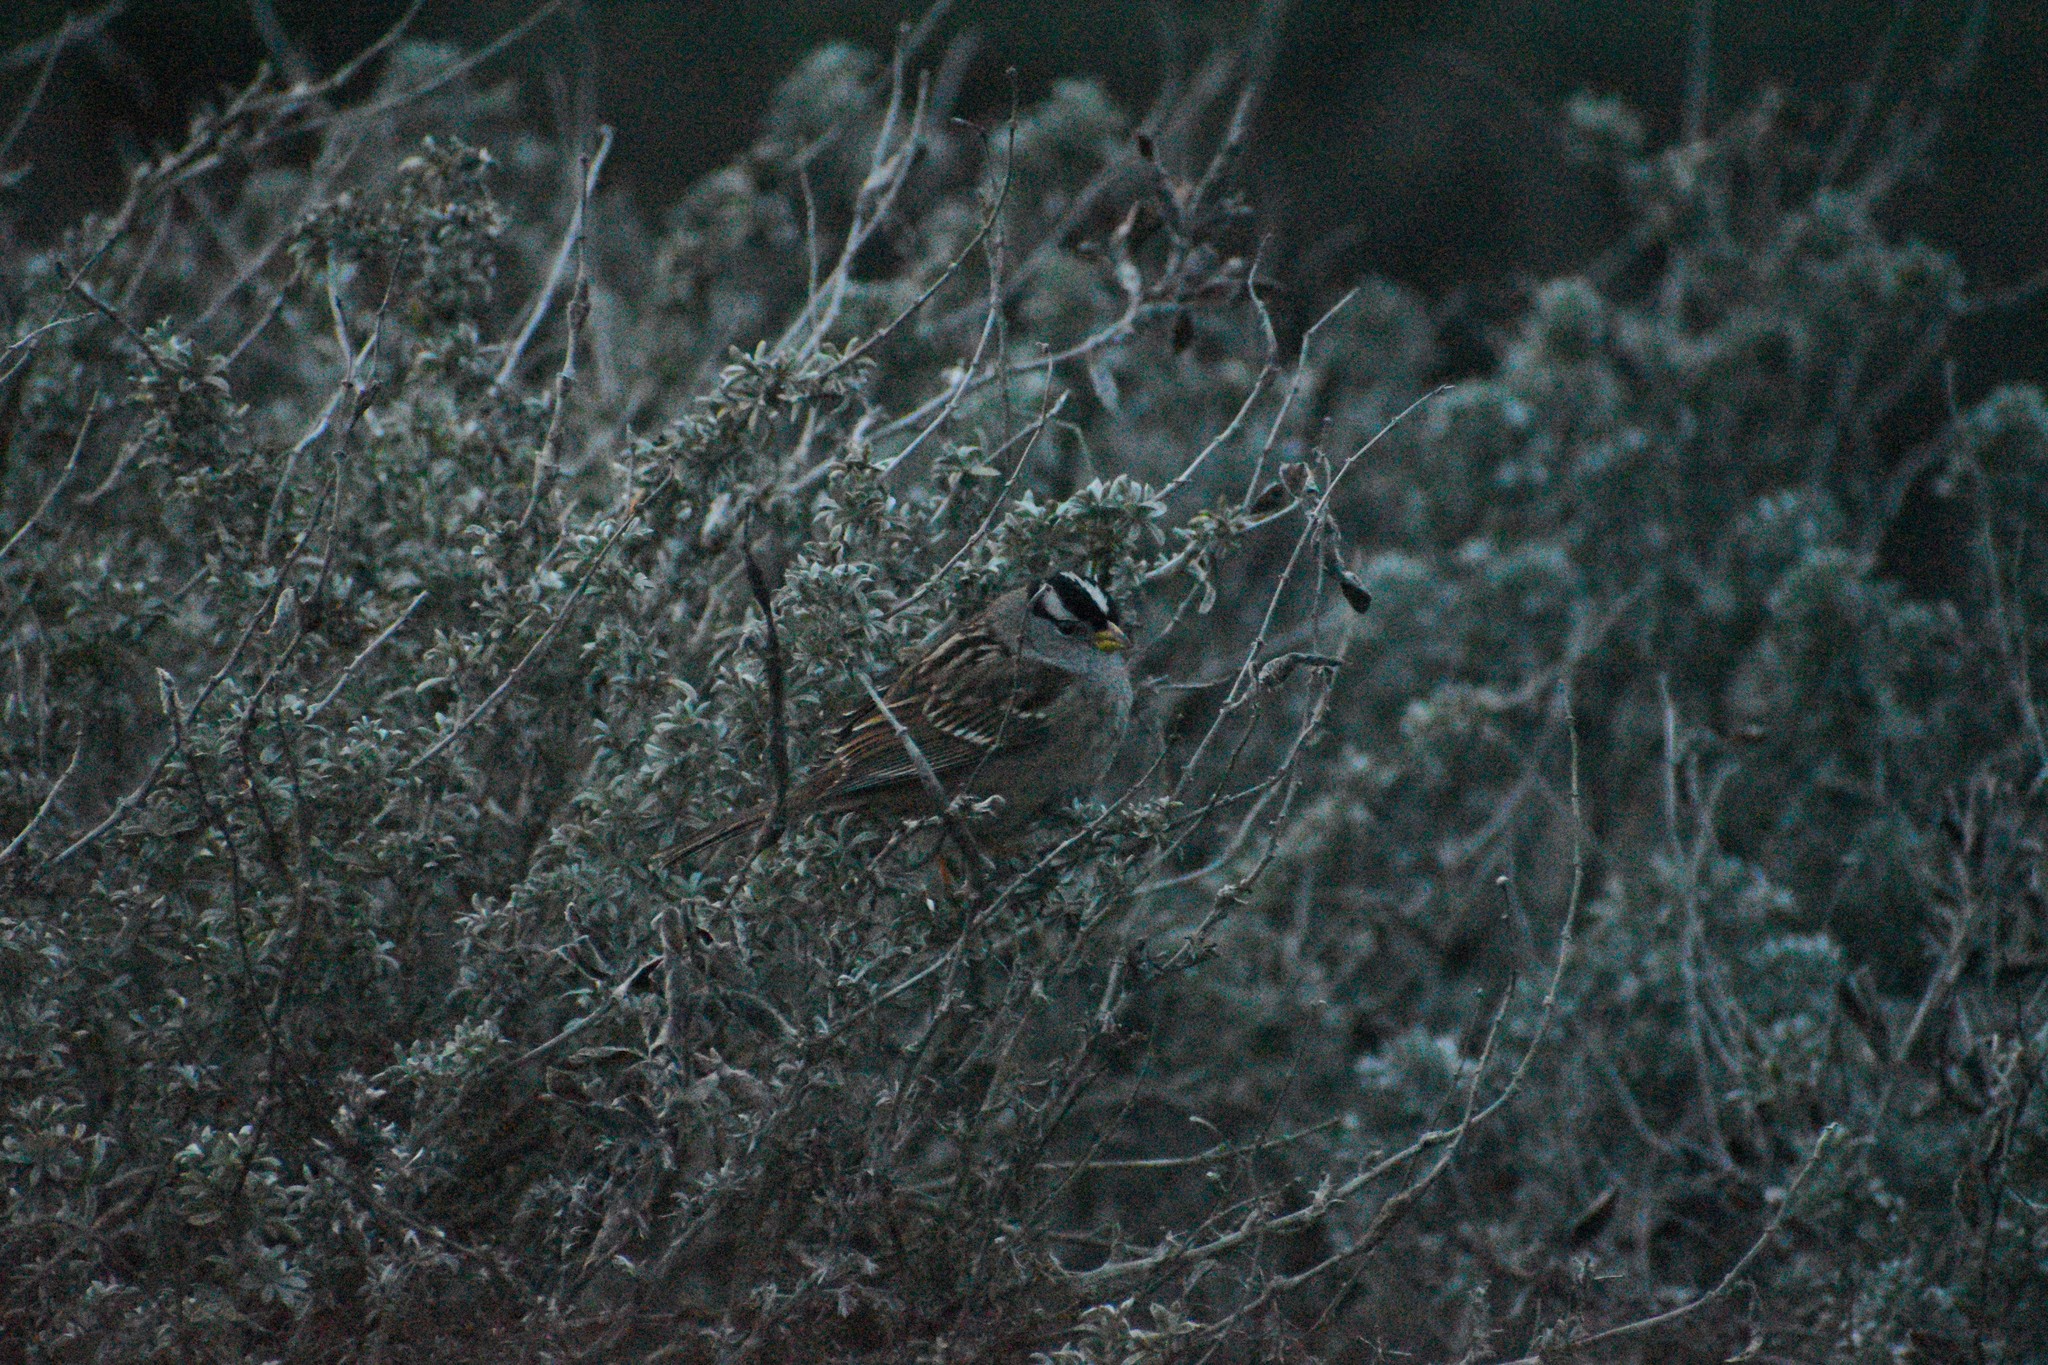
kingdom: Animalia
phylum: Chordata
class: Aves
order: Passeriformes
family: Passerellidae
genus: Zonotrichia
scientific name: Zonotrichia leucophrys
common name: White-crowned sparrow
